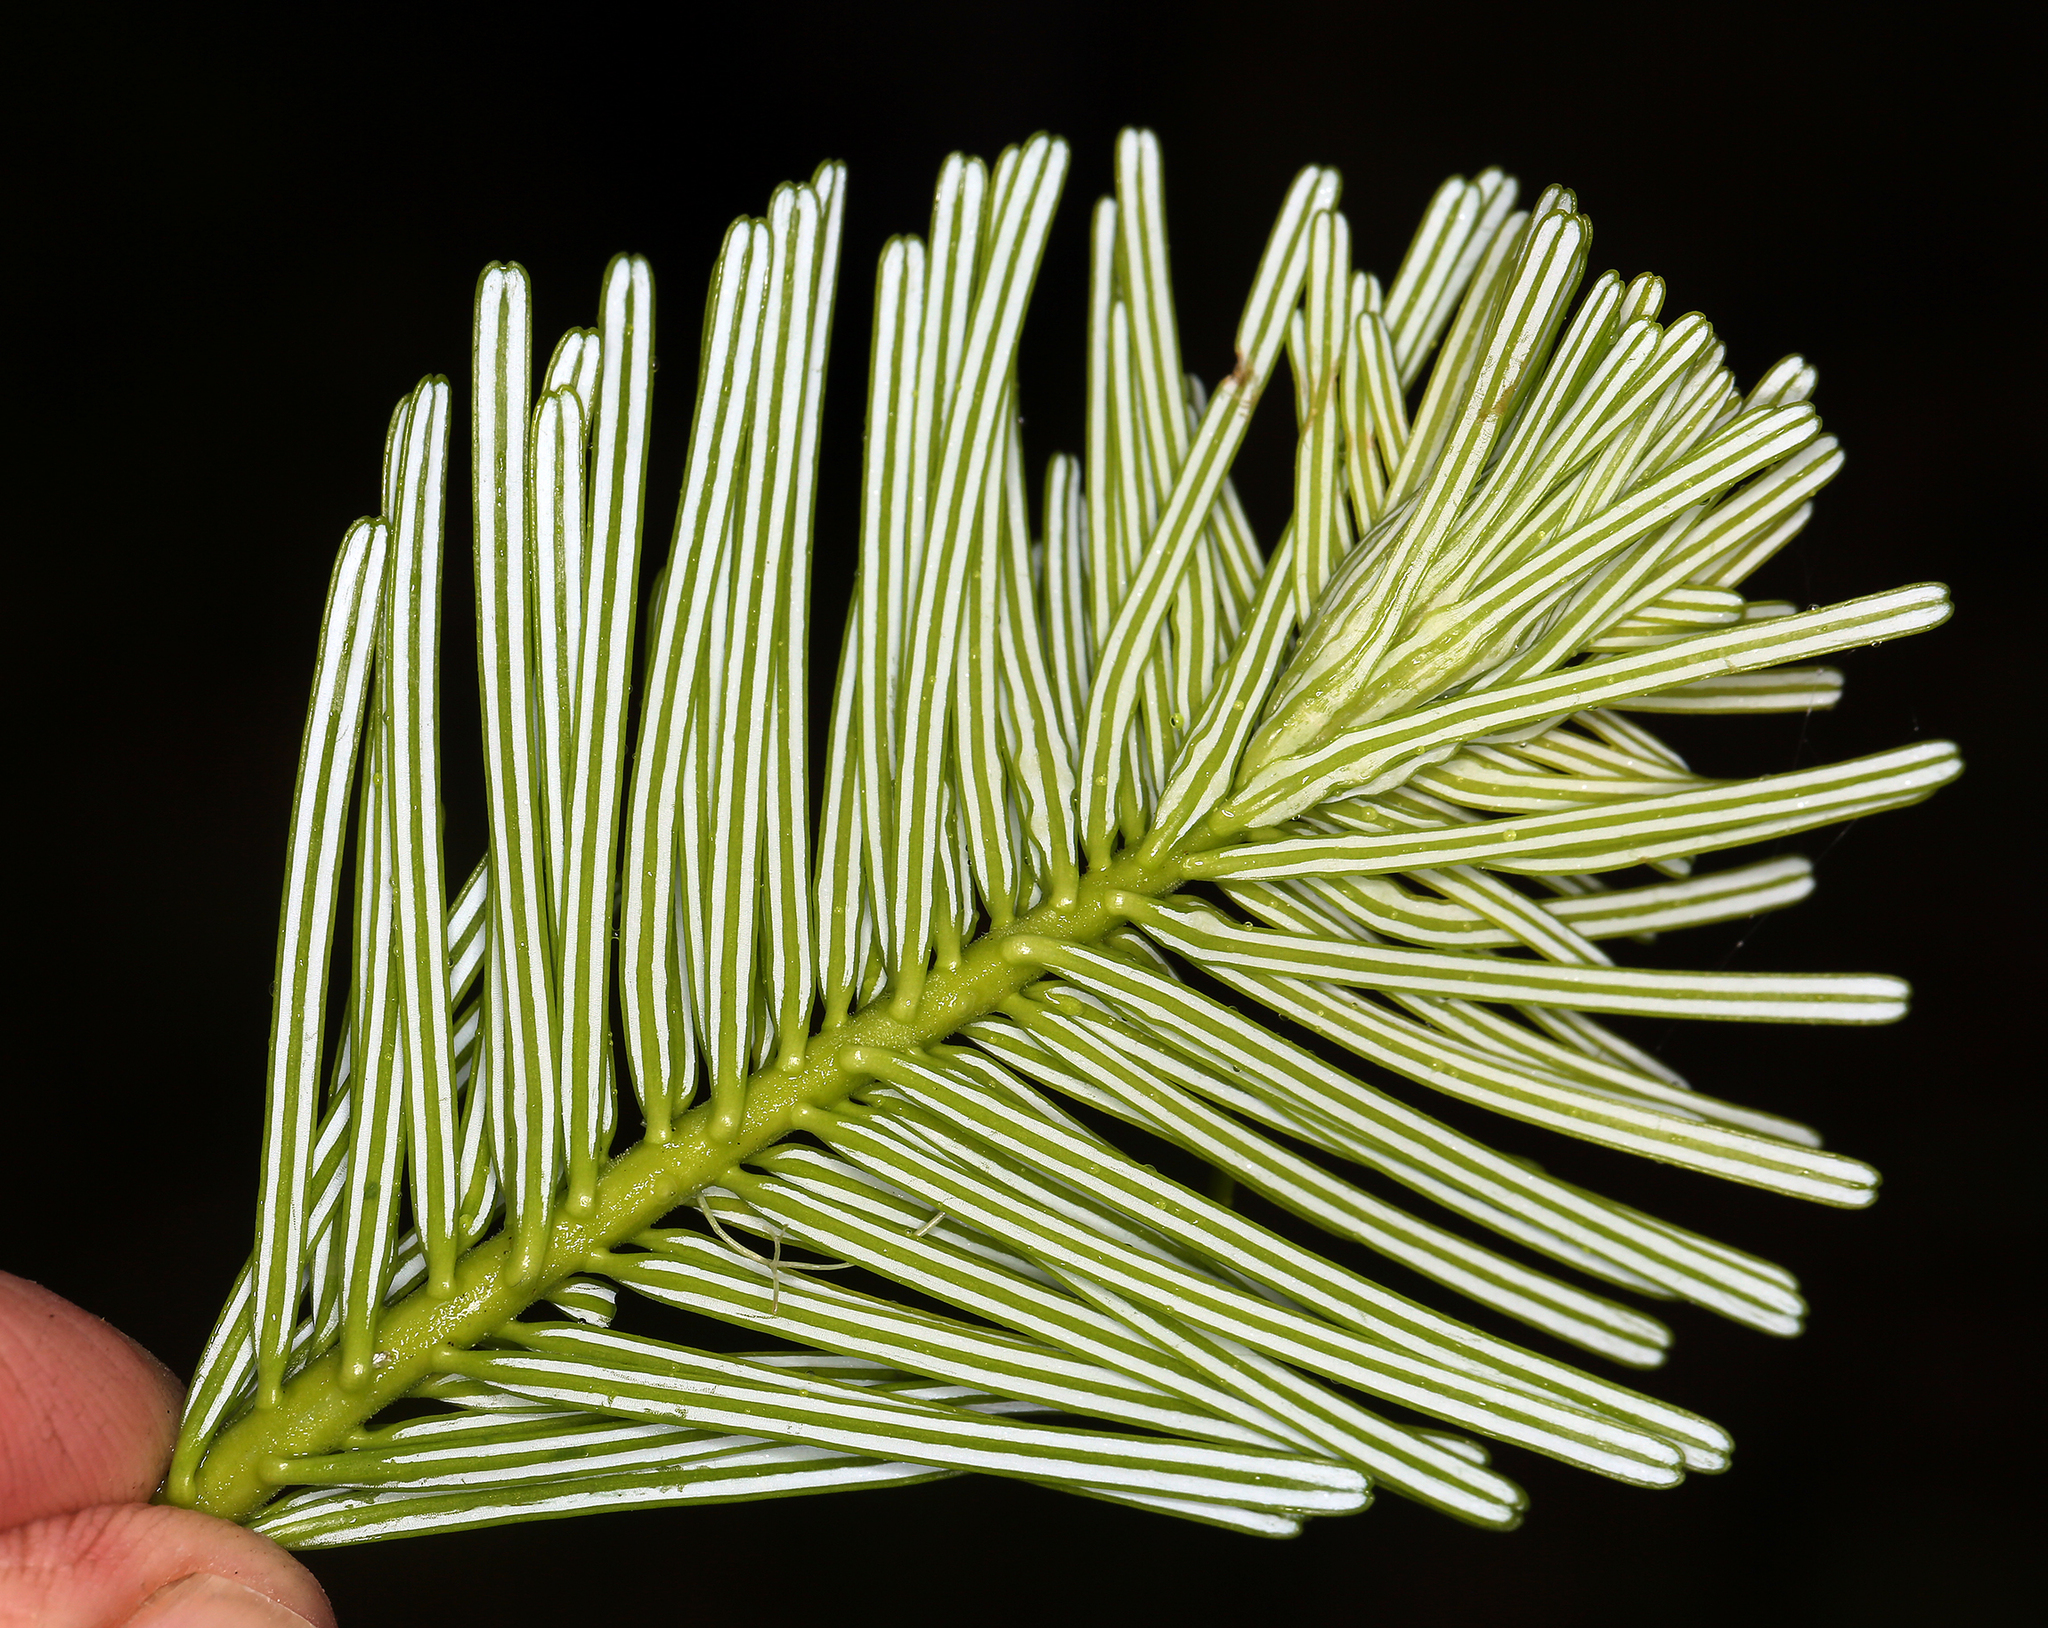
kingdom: Plantae
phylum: Tracheophyta
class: Pinopsida
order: Pinales
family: Pinaceae
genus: Abies
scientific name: Abies grandis
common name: Giant fir
